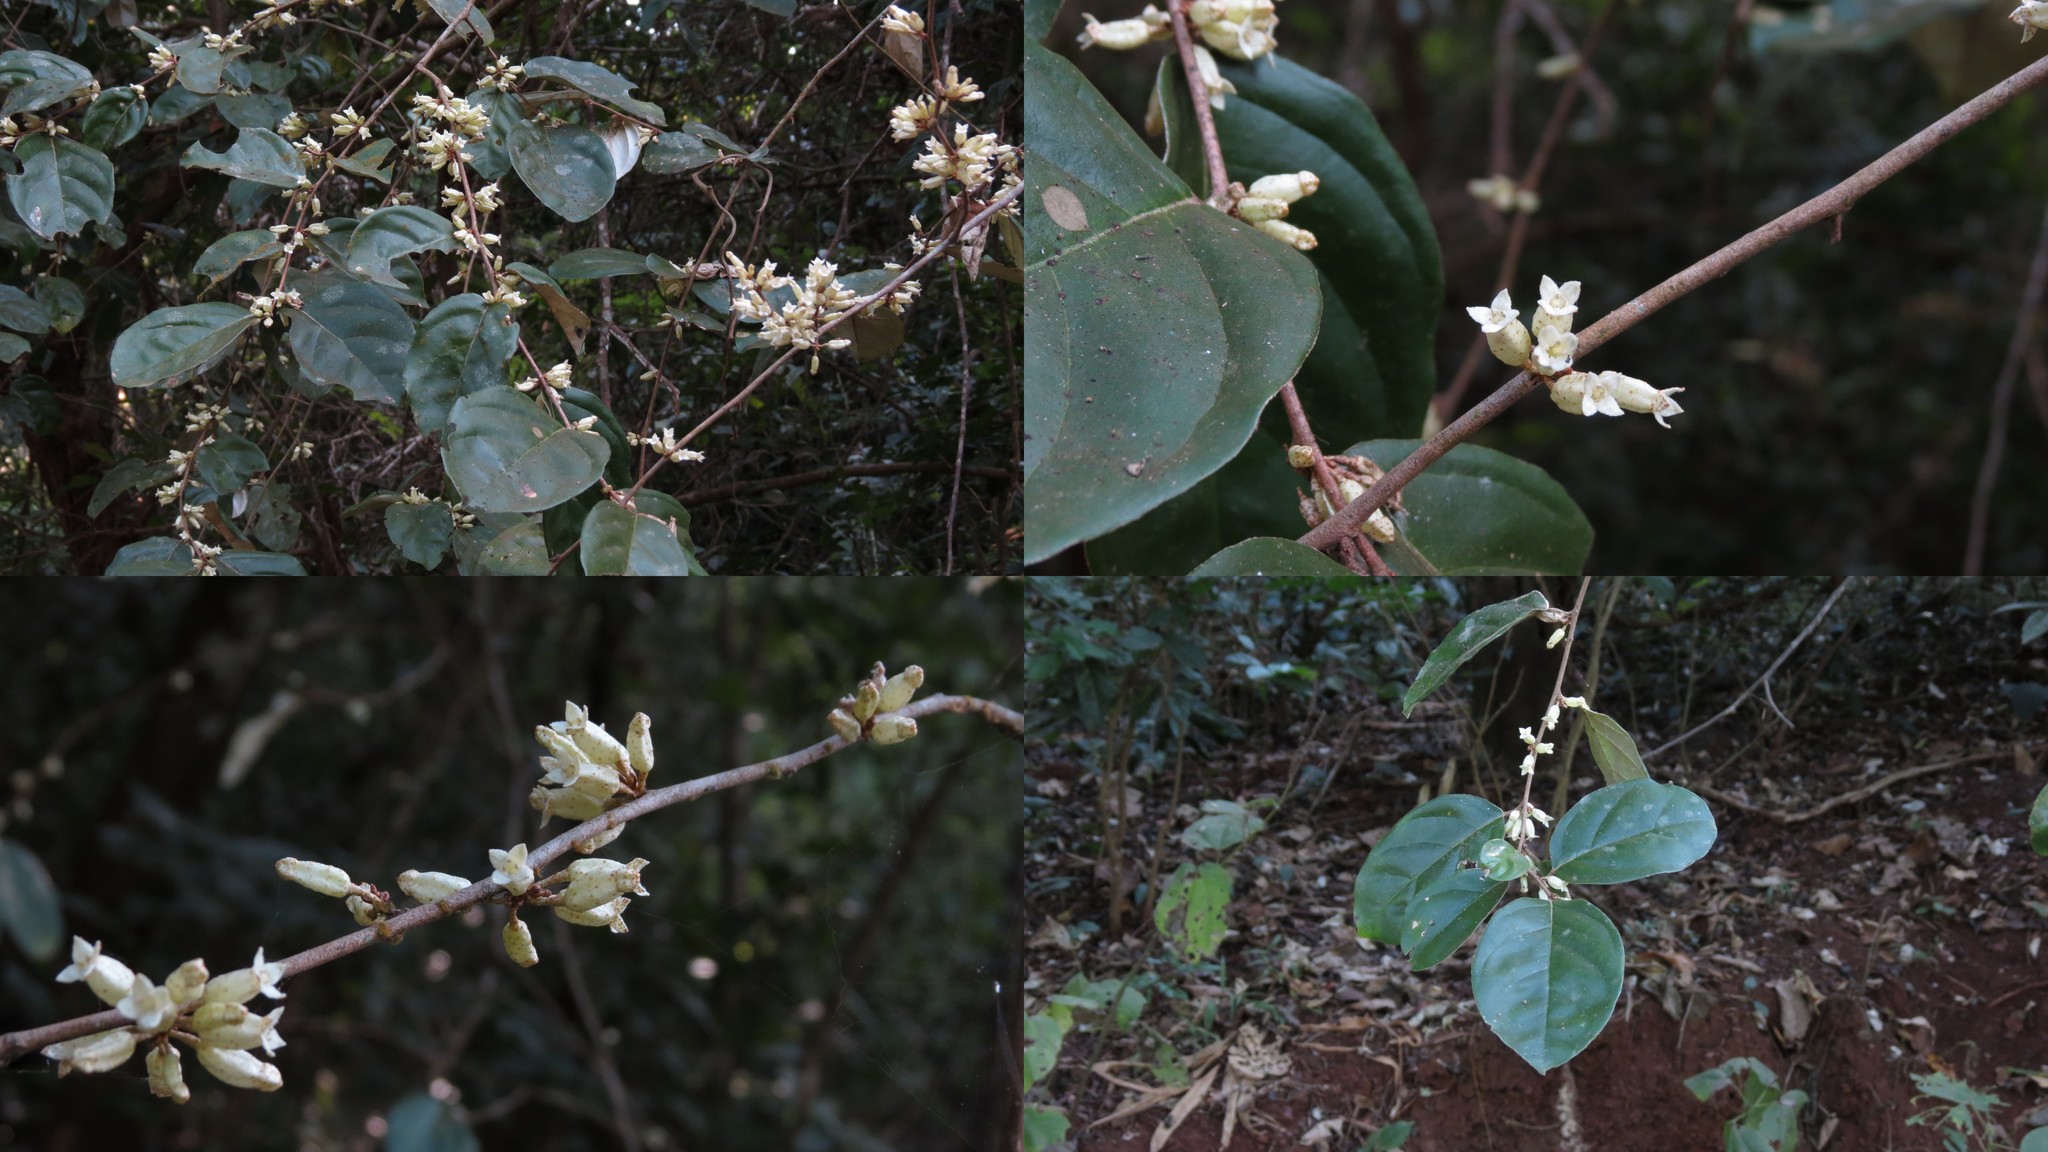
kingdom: Plantae
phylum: Tracheophyta
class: Magnoliopsida
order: Rosales
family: Elaeagnaceae
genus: Elaeagnus
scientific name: Elaeagnus conferta
